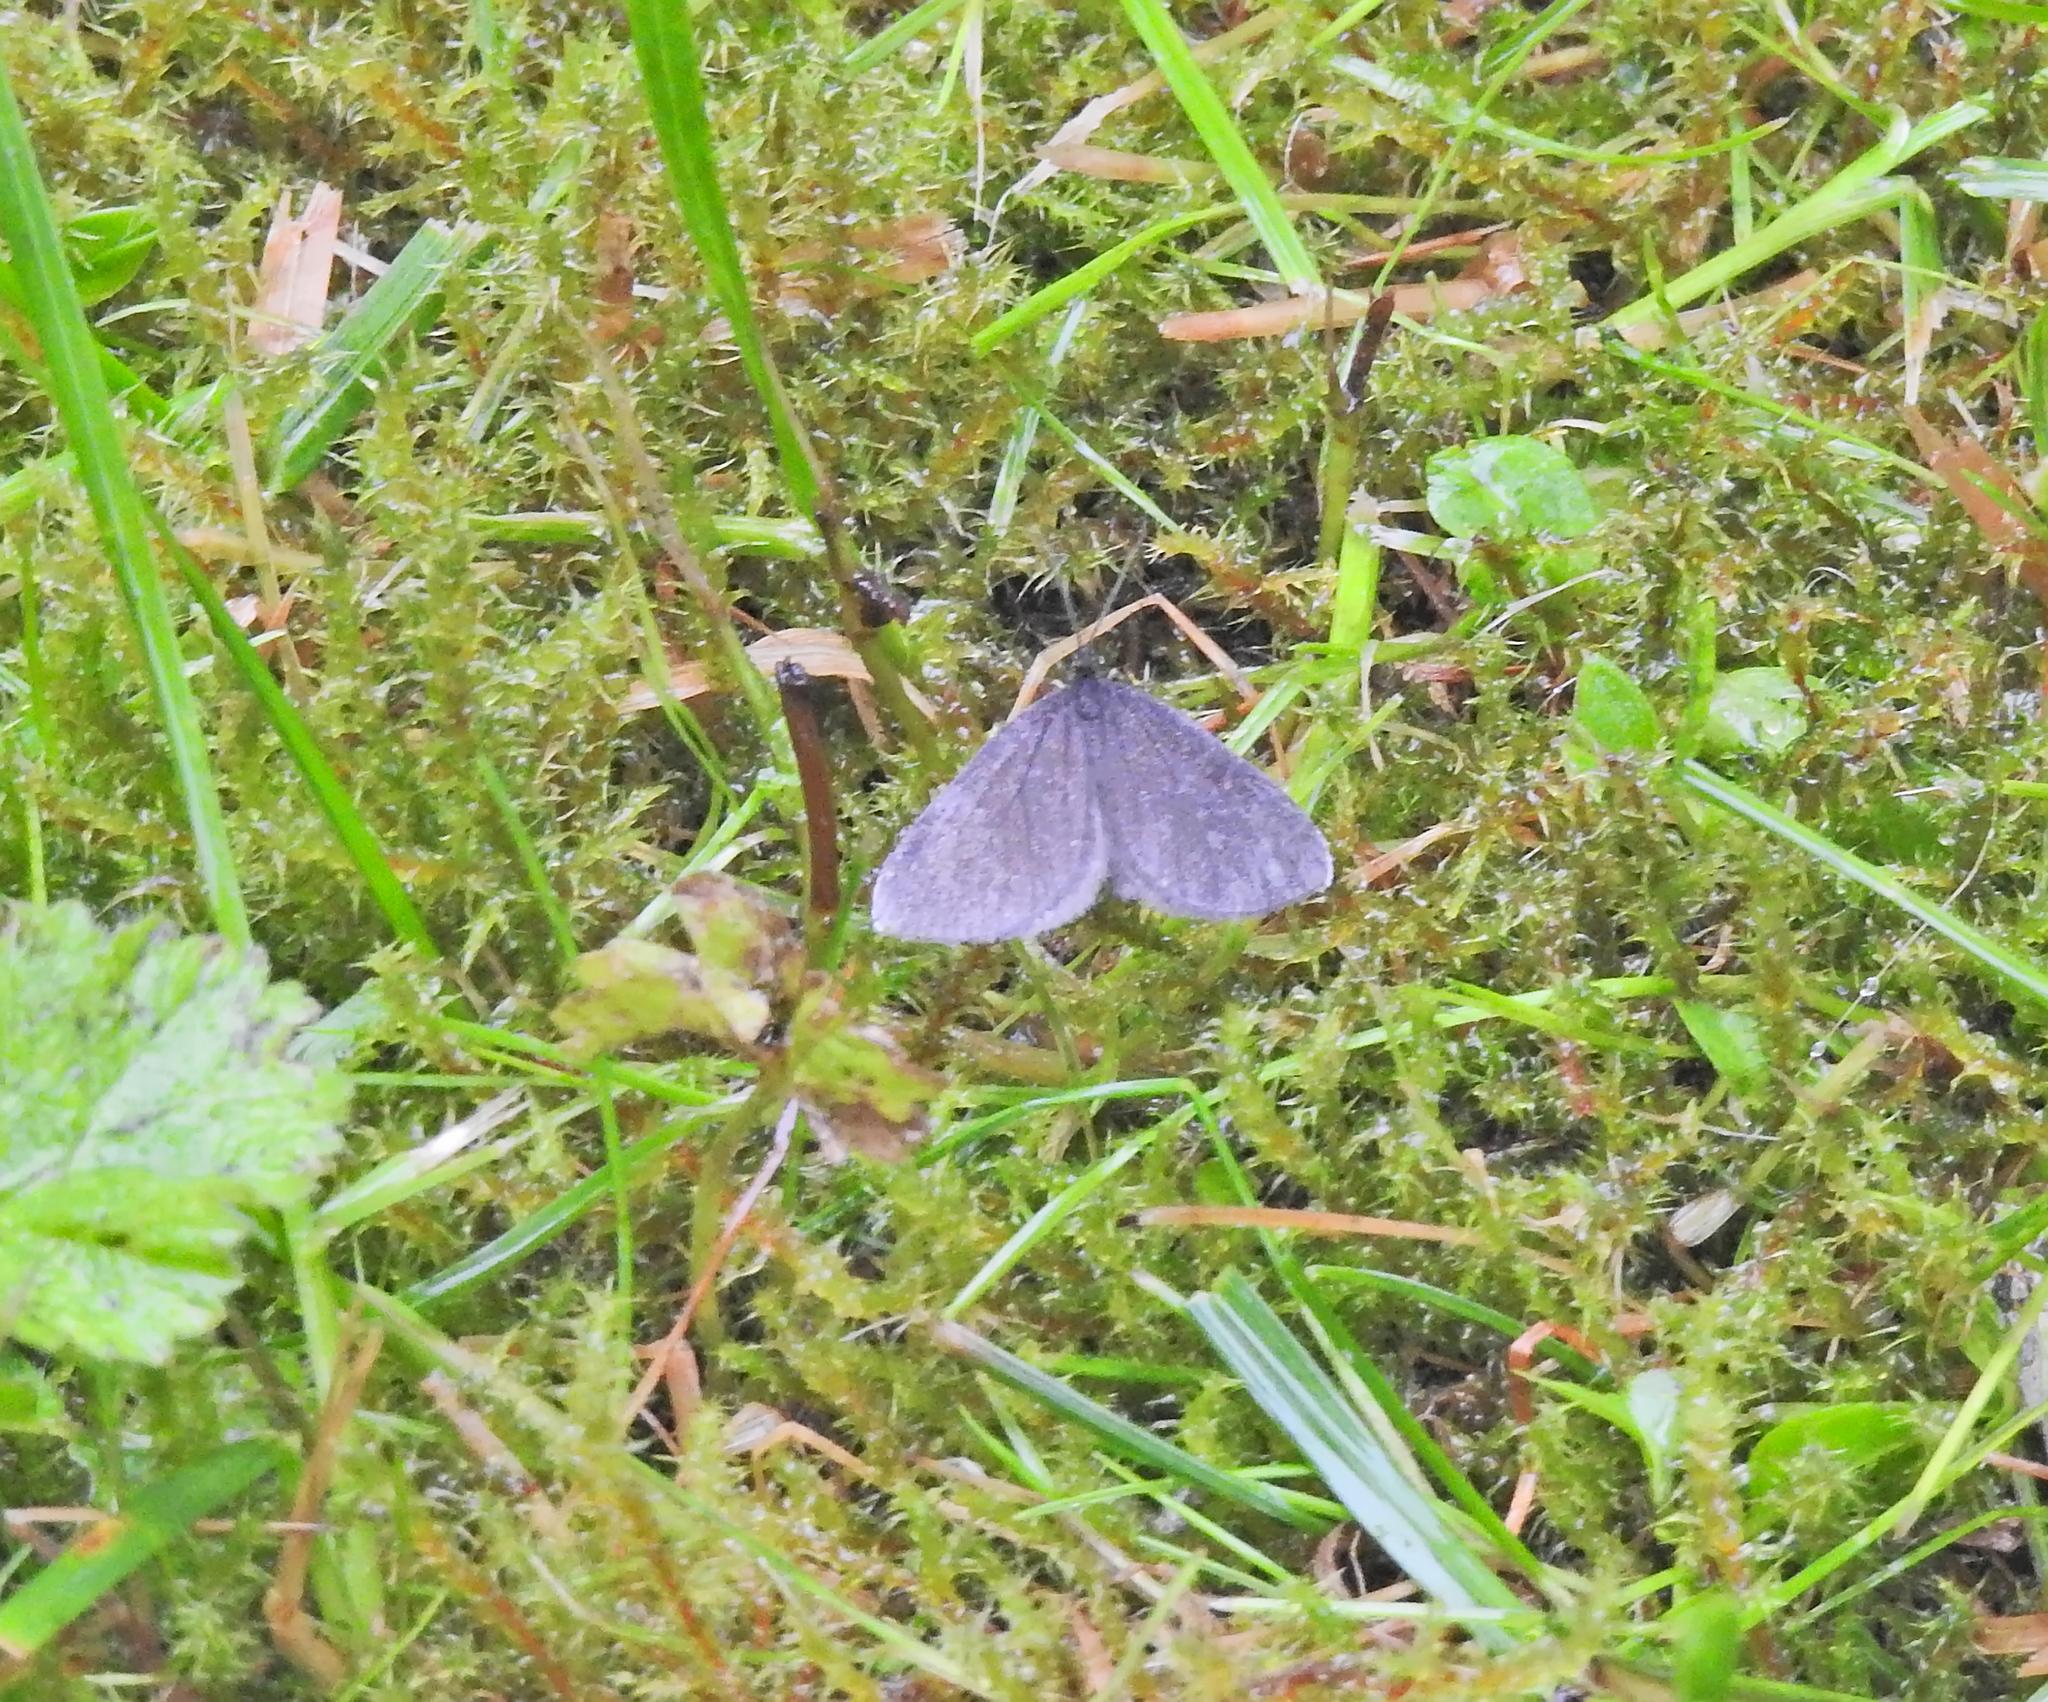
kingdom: Animalia
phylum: Arthropoda
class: Insecta
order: Lepidoptera
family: Geometridae
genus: Odezia
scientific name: Odezia atrata
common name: Chimney sweeper
